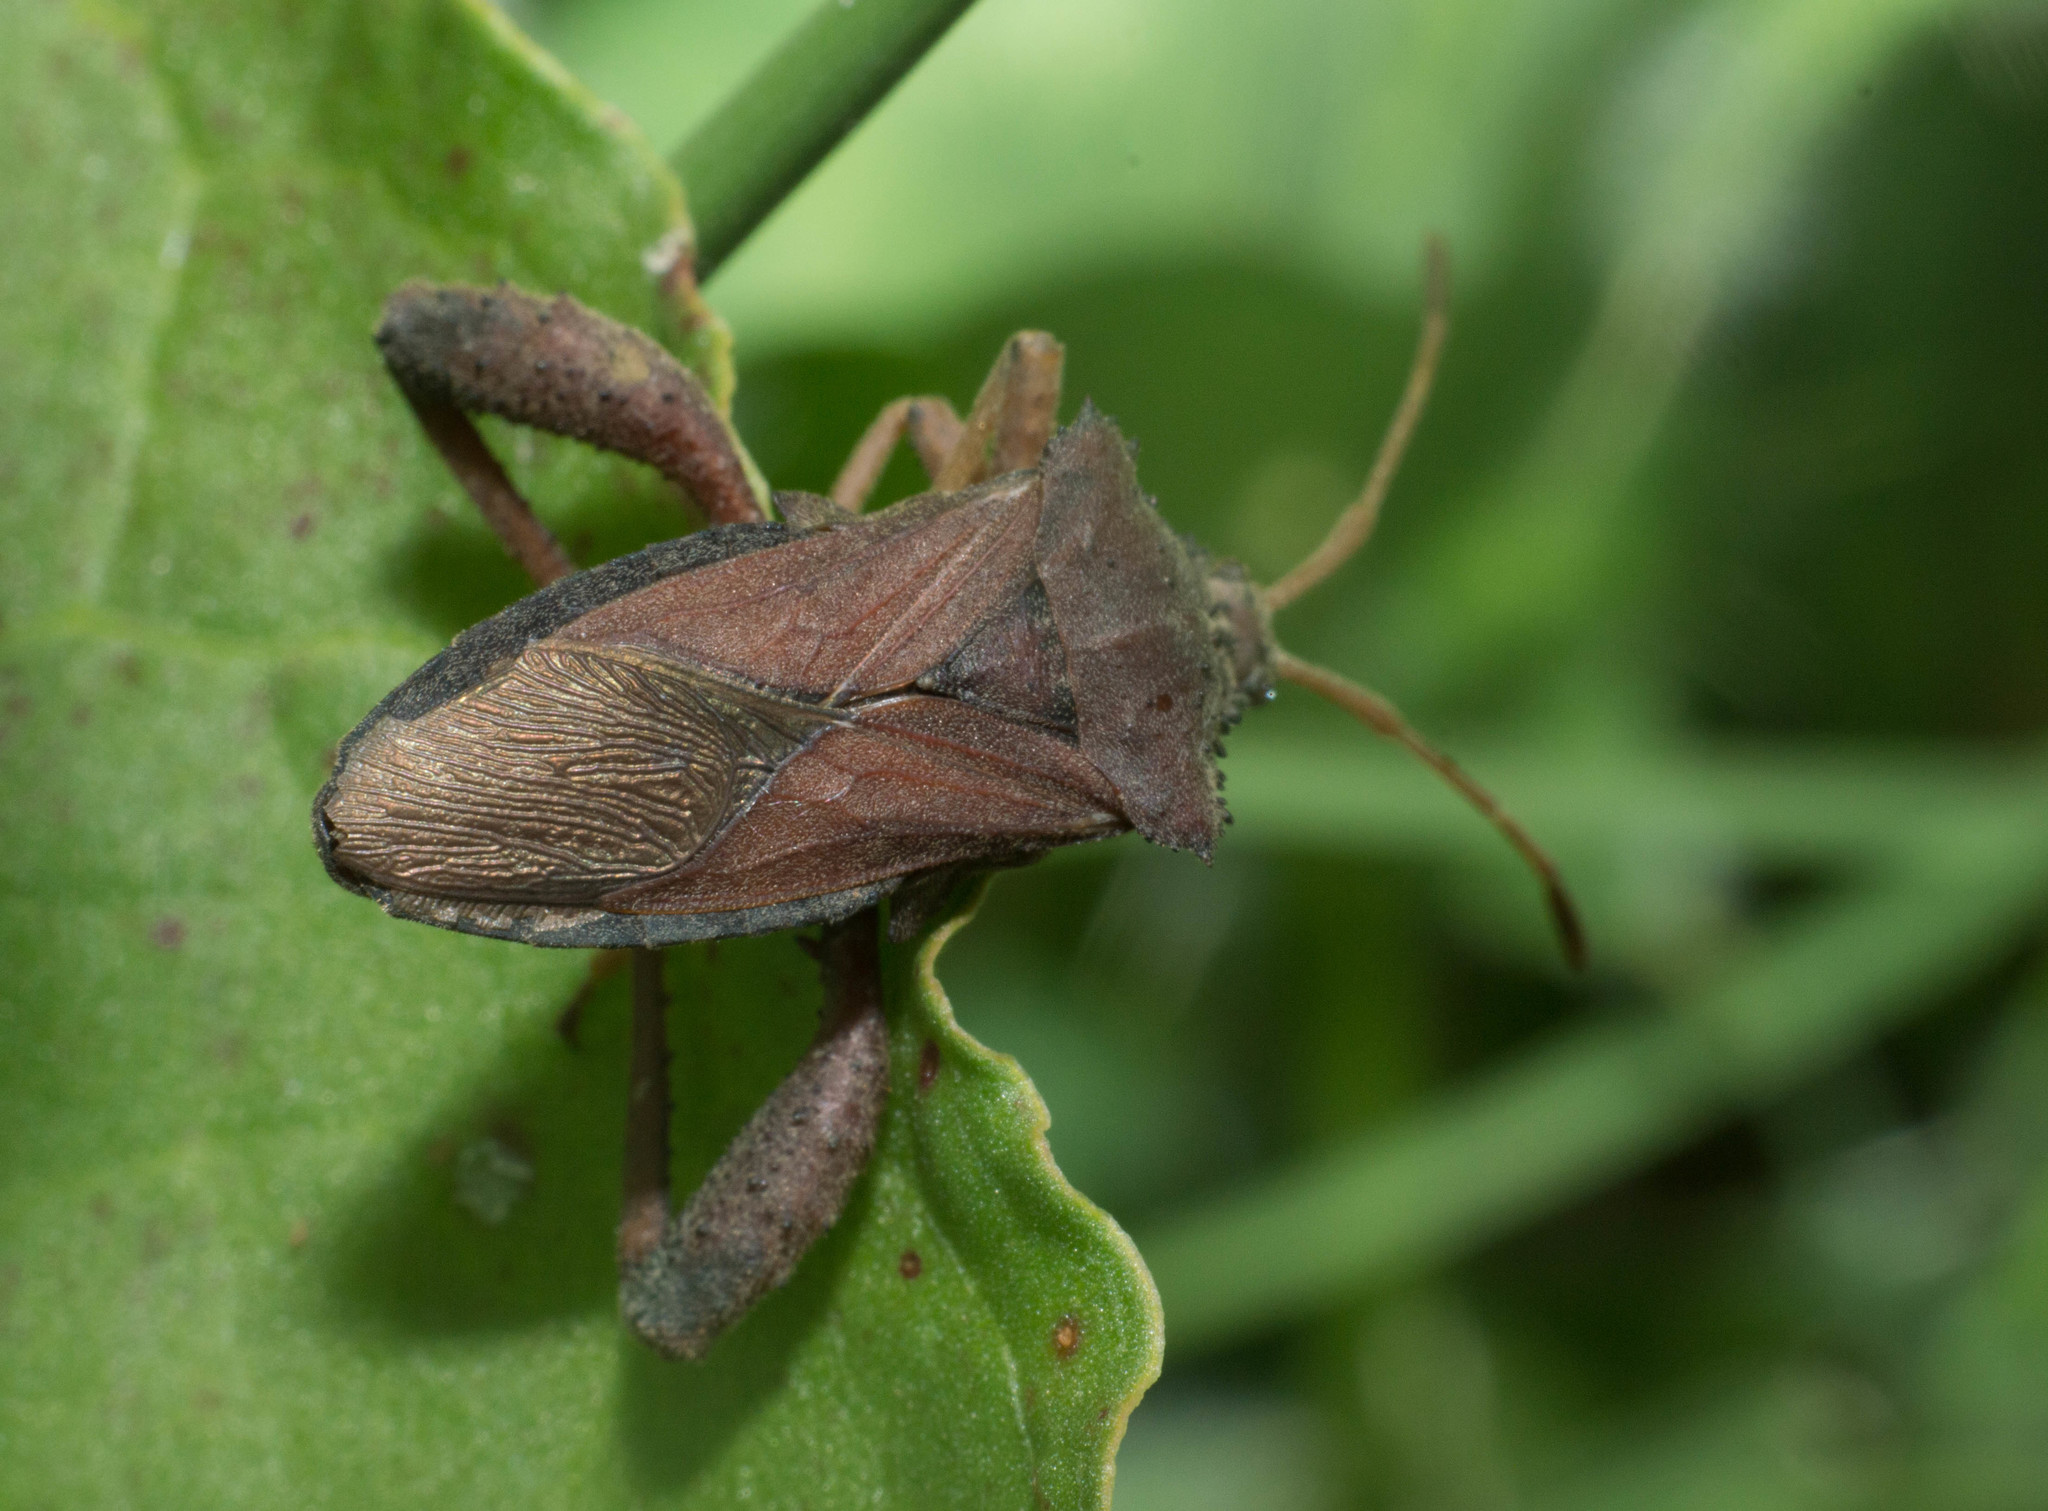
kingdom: Animalia
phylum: Arthropoda
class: Insecta
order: Hemiptera
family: Coreidae
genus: Camptischium
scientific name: Camptischium clavipes
